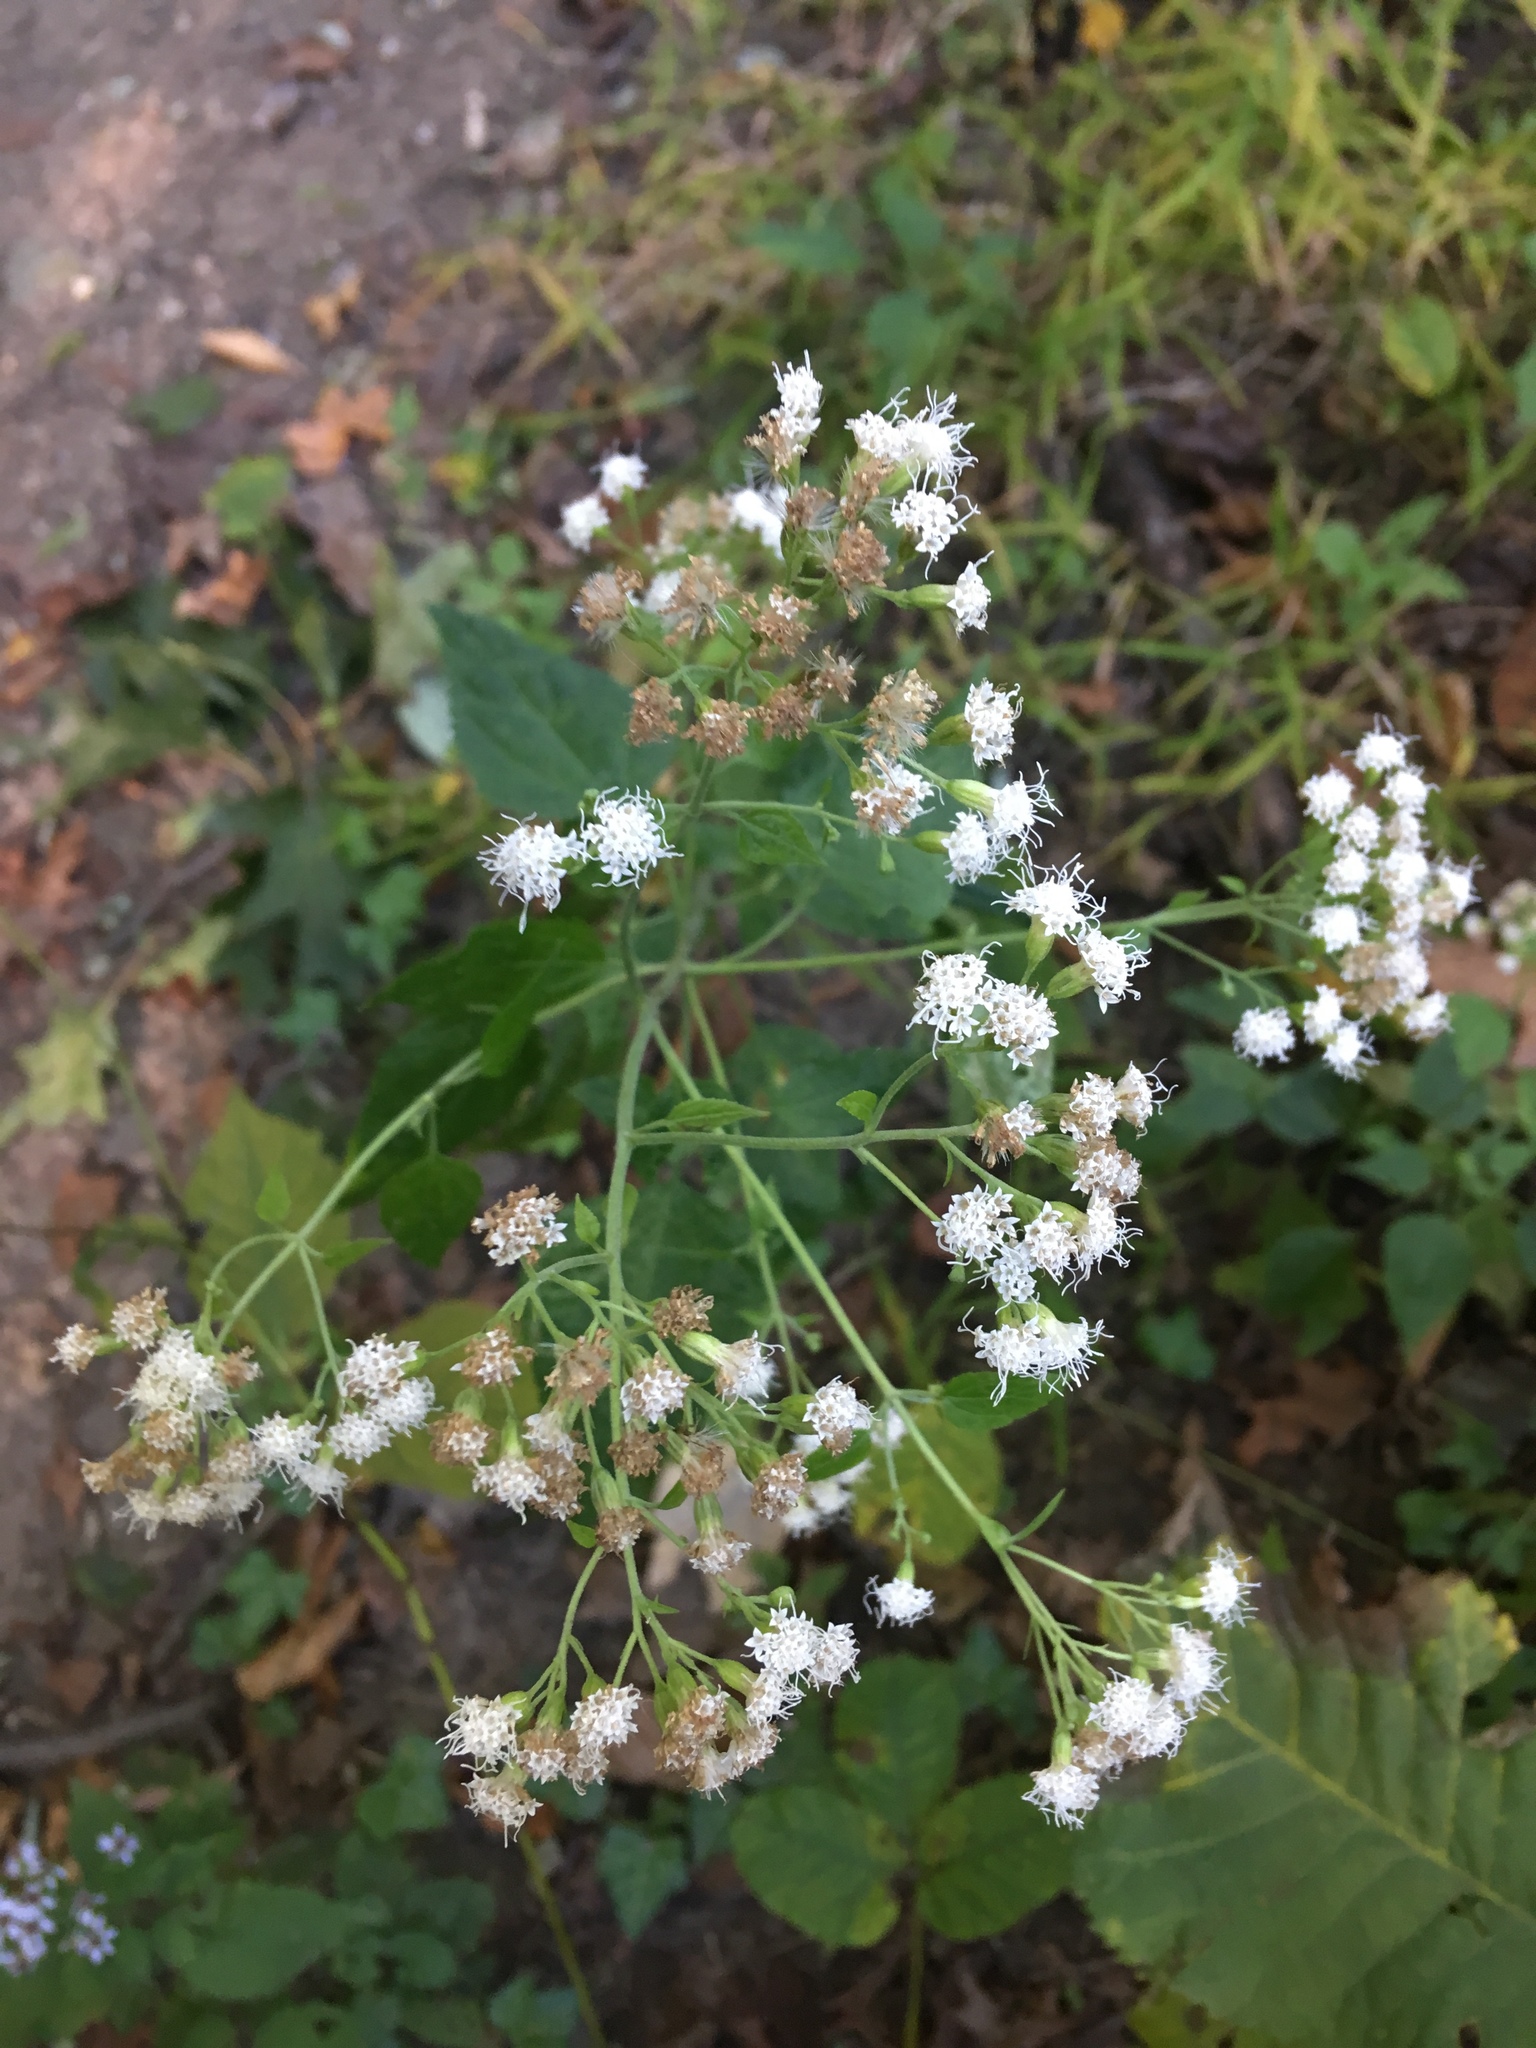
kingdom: Plantae
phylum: Tracheophyta
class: Magnoliopsida
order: Asterales
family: Asteraceae
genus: Ageratina
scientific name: Ageratina altissima
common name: White snakeroot
